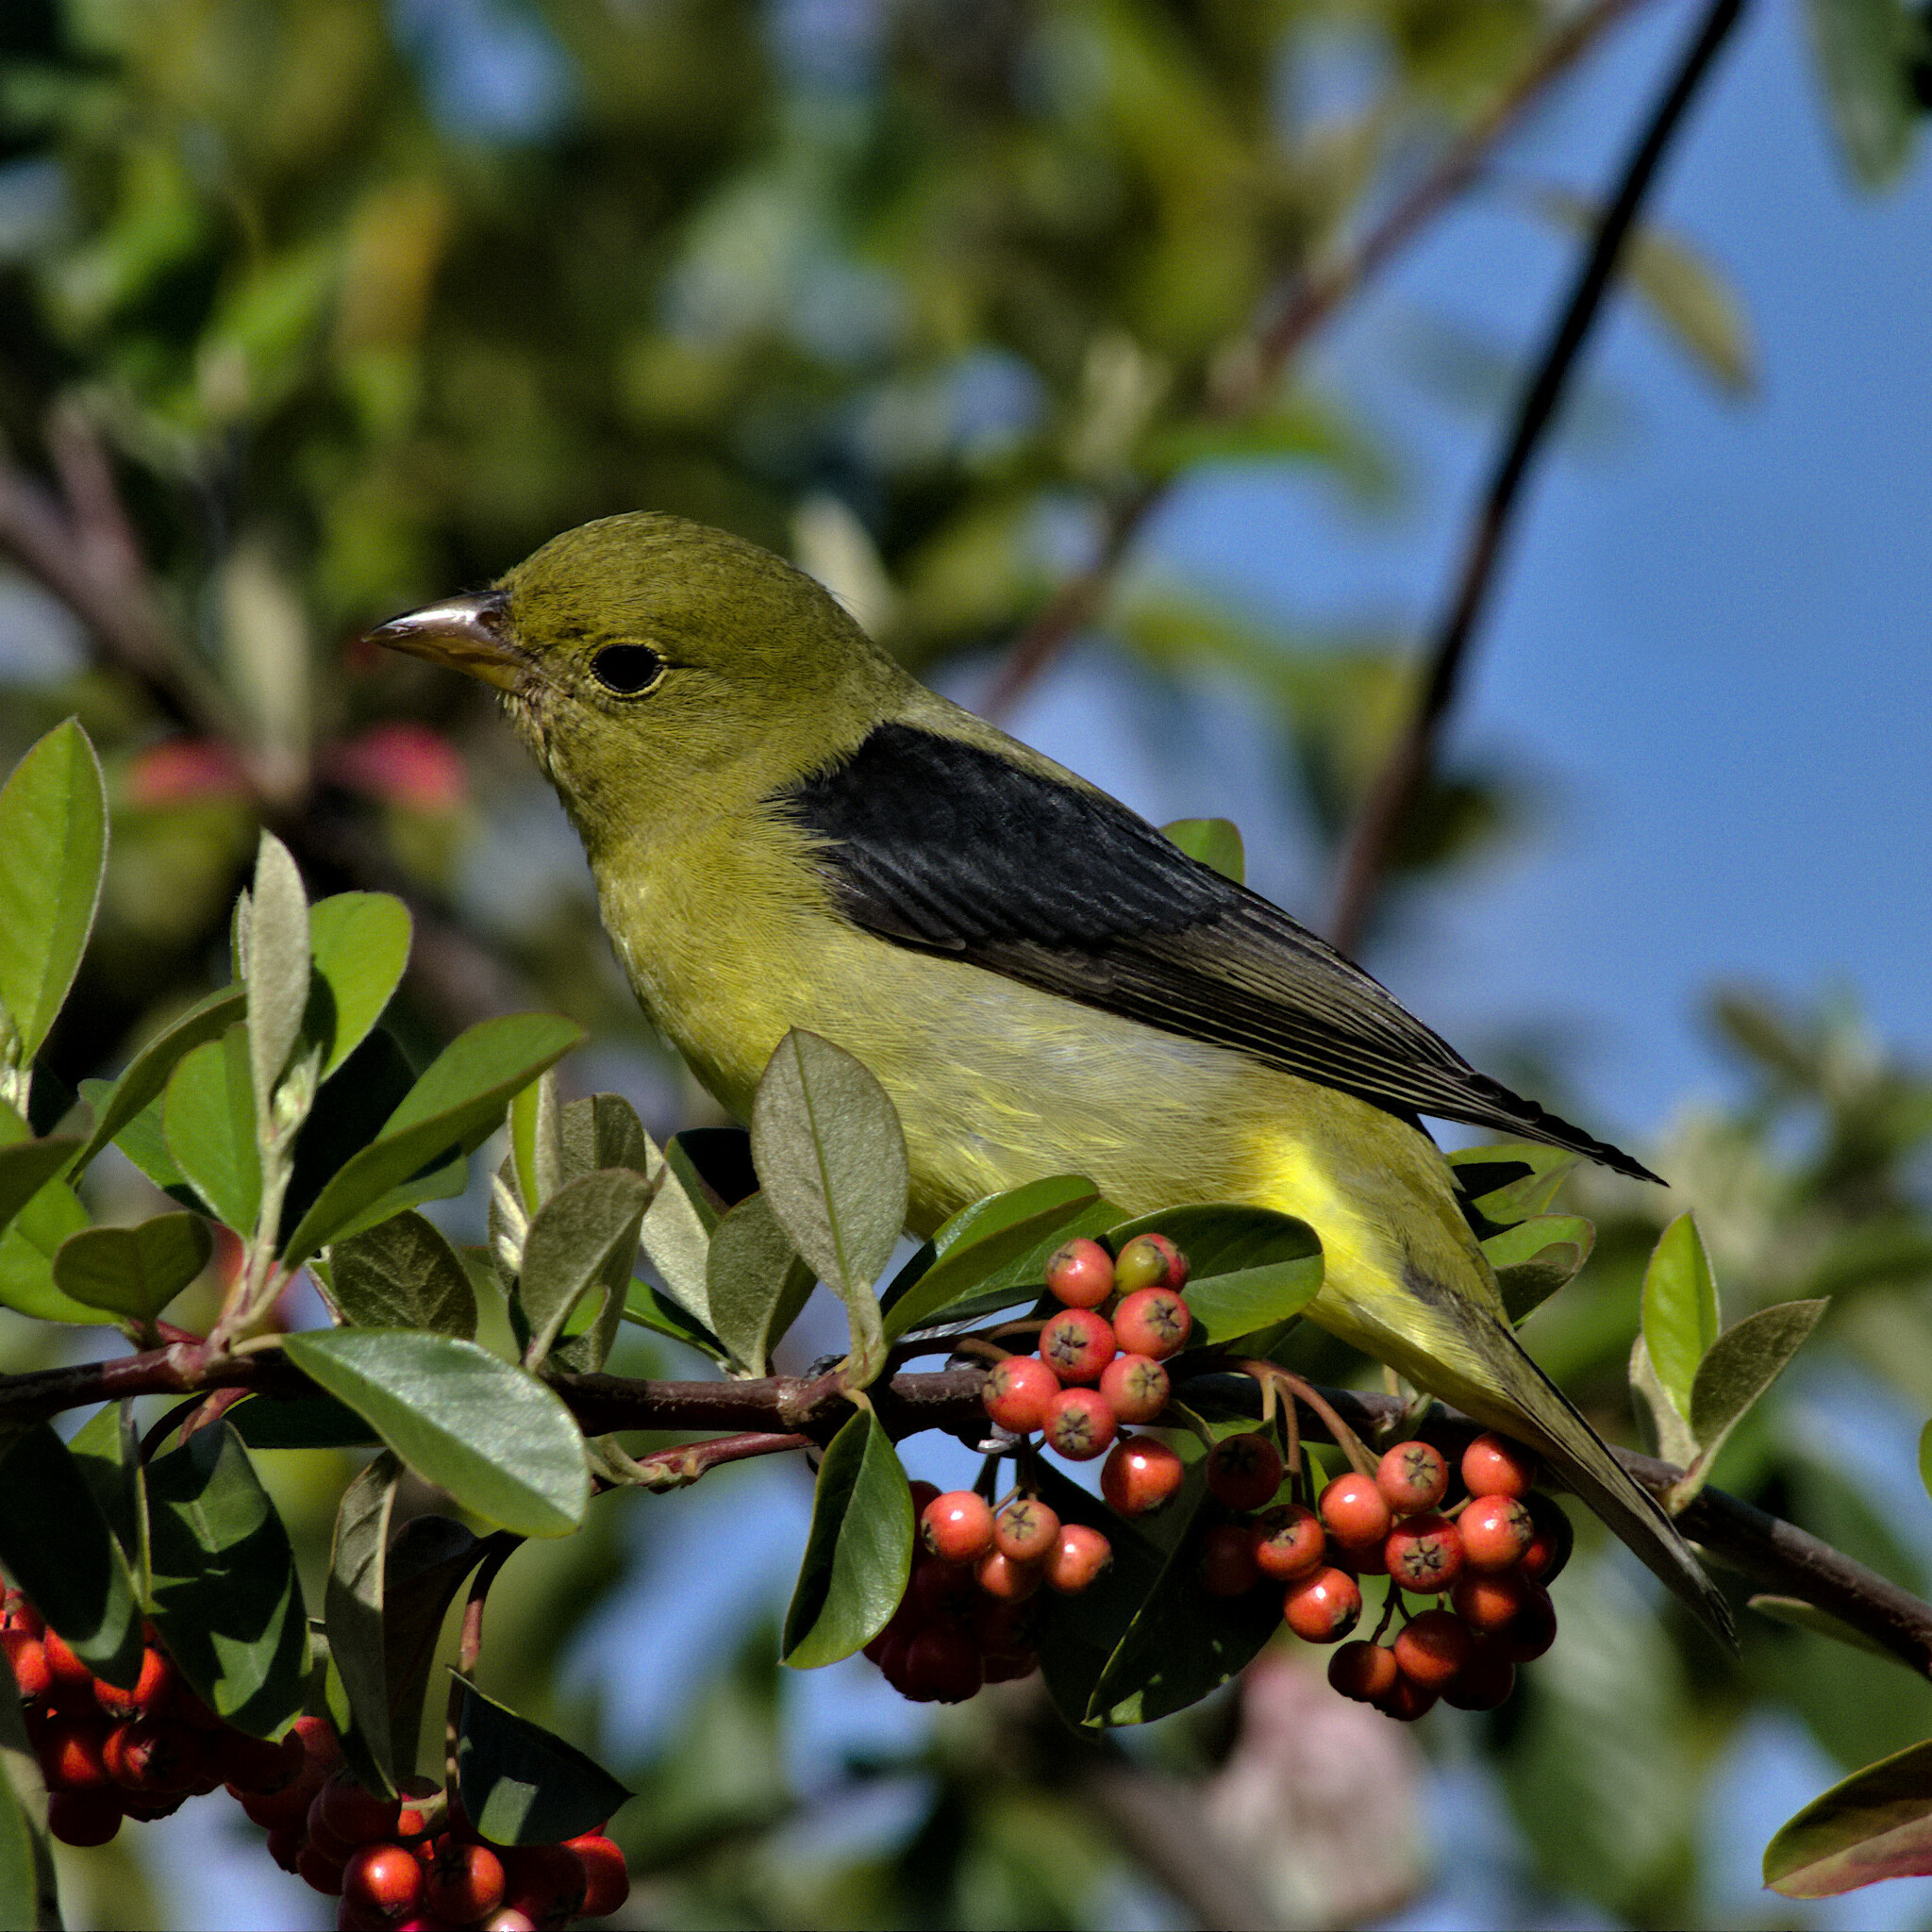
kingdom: Animalia
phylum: Chordata
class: Aves
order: Passeriformes
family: Cardinalidae
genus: Piranga
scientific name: Piranga olivacea
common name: Scarlet tanager
